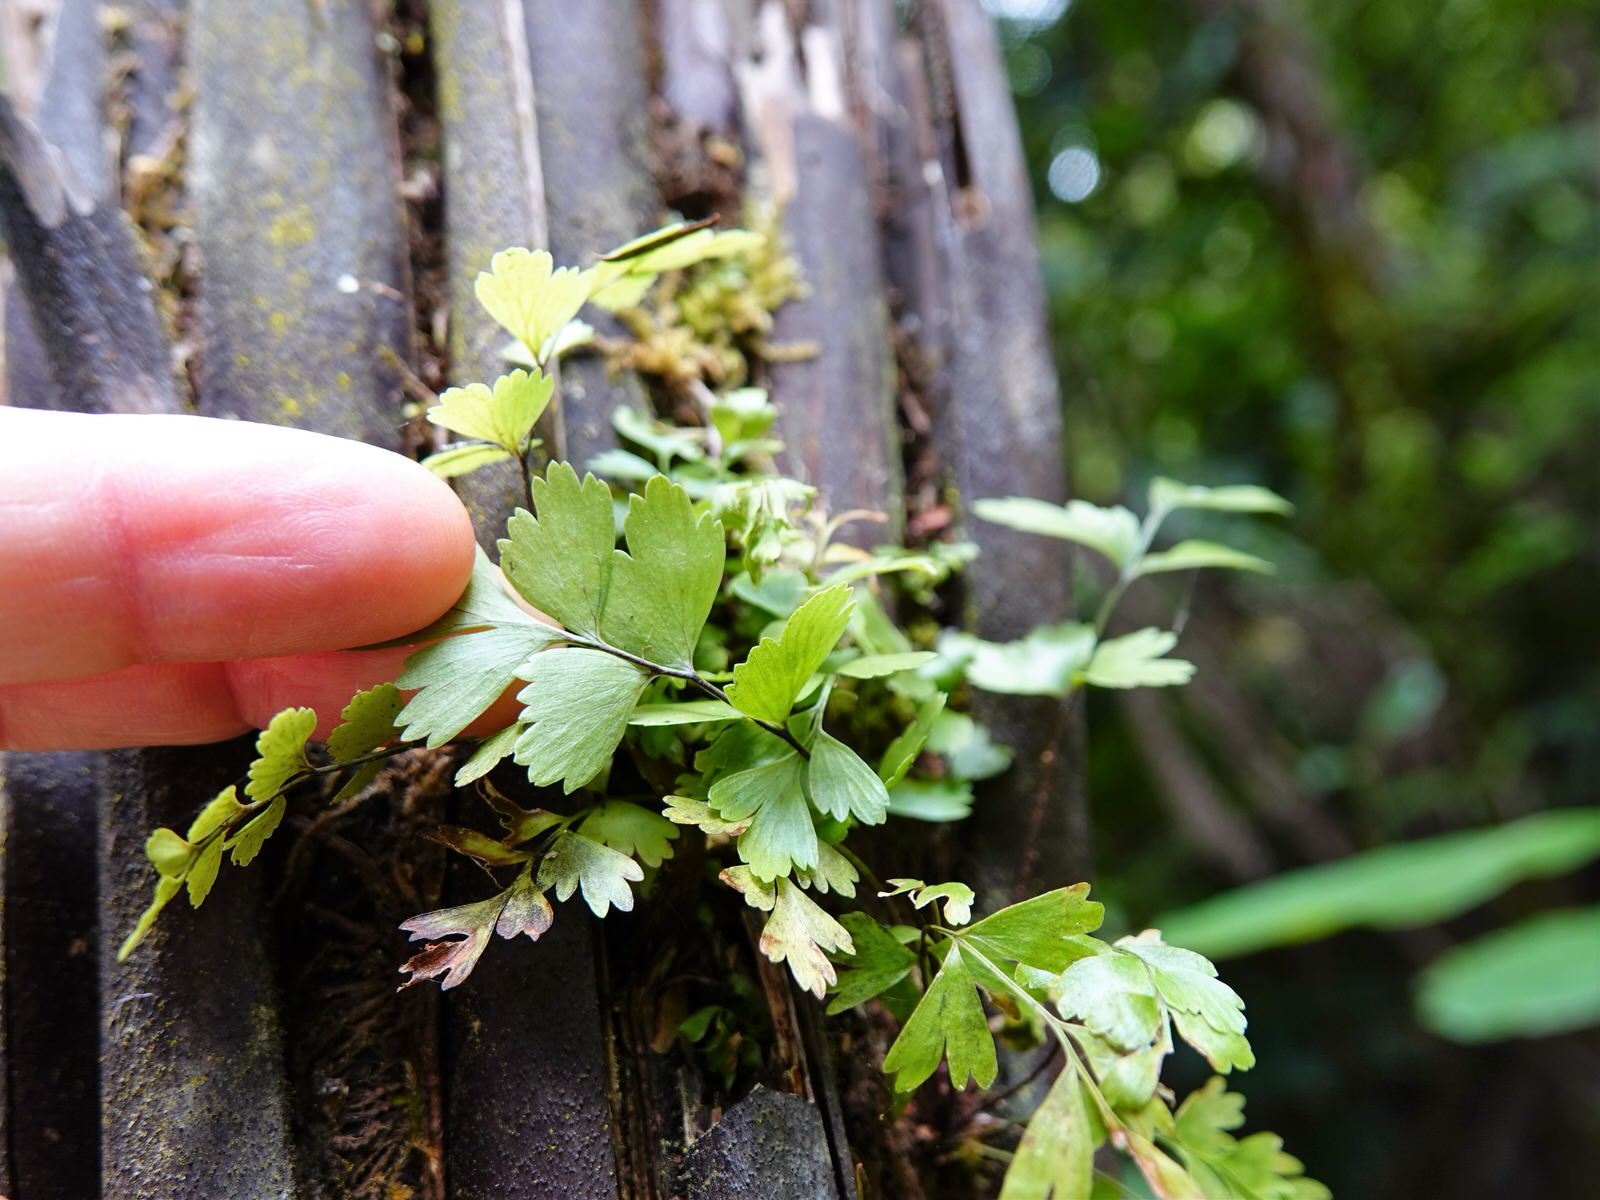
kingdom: Plantae
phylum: Tracheophyta
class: Polypodiopsida
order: Polypodiales
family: Aspleniaceae
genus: Asplenium
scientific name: Asplenium polyodon
